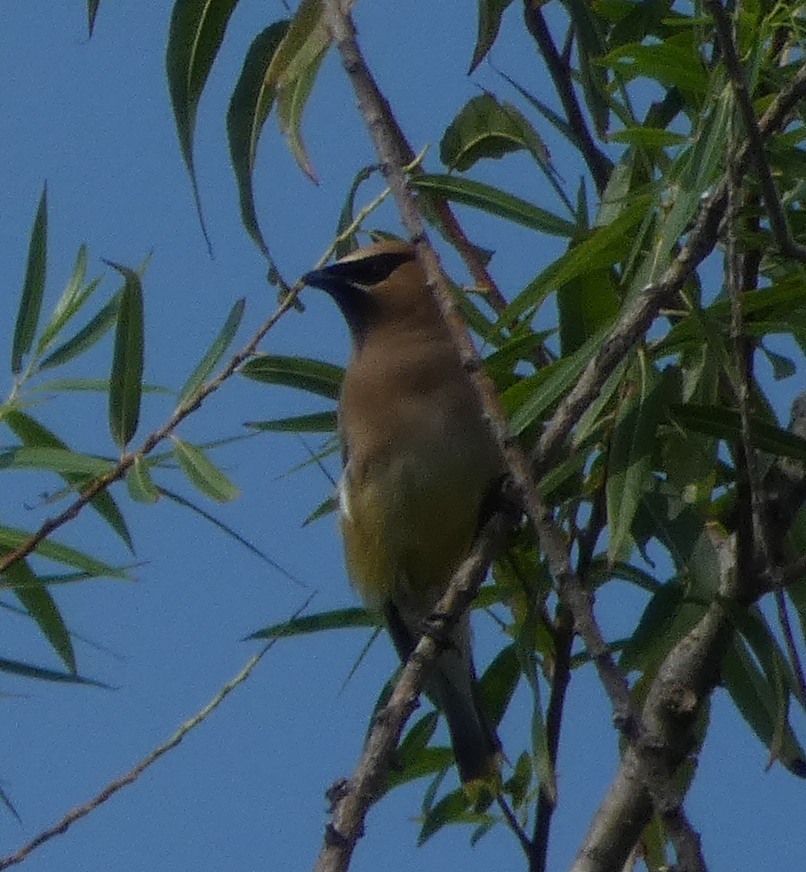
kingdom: Animalia
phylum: Chordata
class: Aves
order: Passeriformes
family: Bombycillidae
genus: Bombycilla
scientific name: Bombycilla cedrorum
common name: Cedar waxwing
